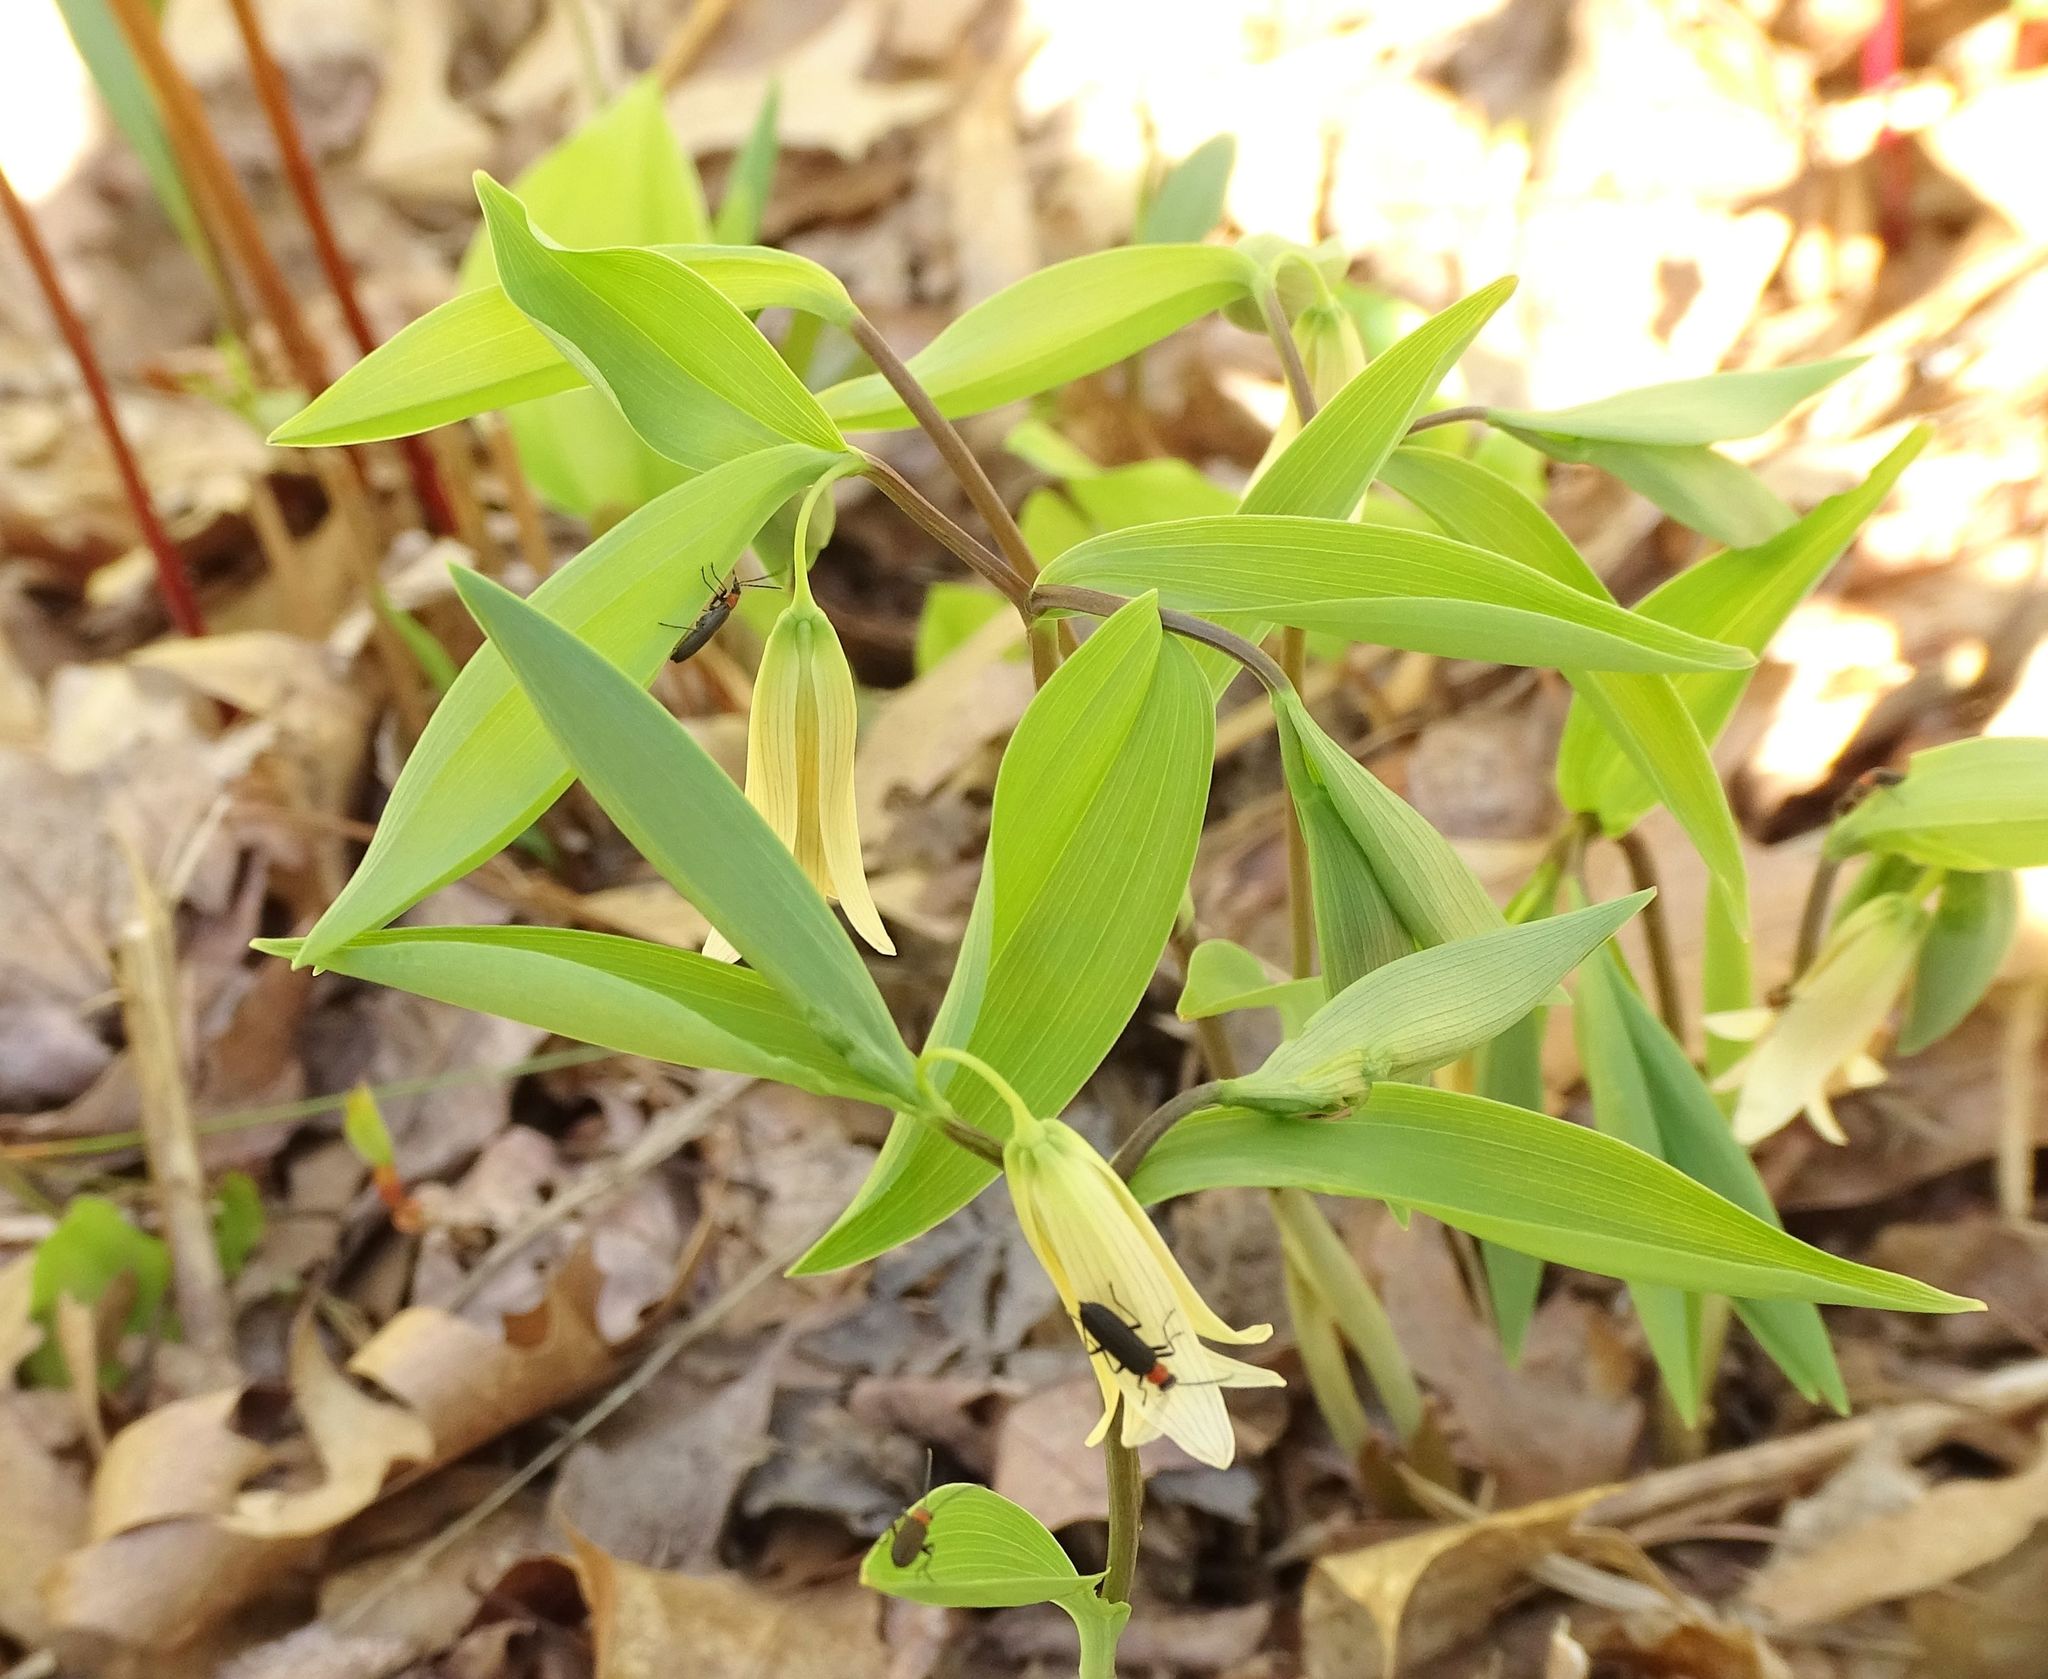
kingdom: Plantae
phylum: Tracheophyta
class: Liliopsida
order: Liliales
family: Colchicaceae
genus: Uvularia
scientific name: Uvularia sessilifolia
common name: Straw-lily
